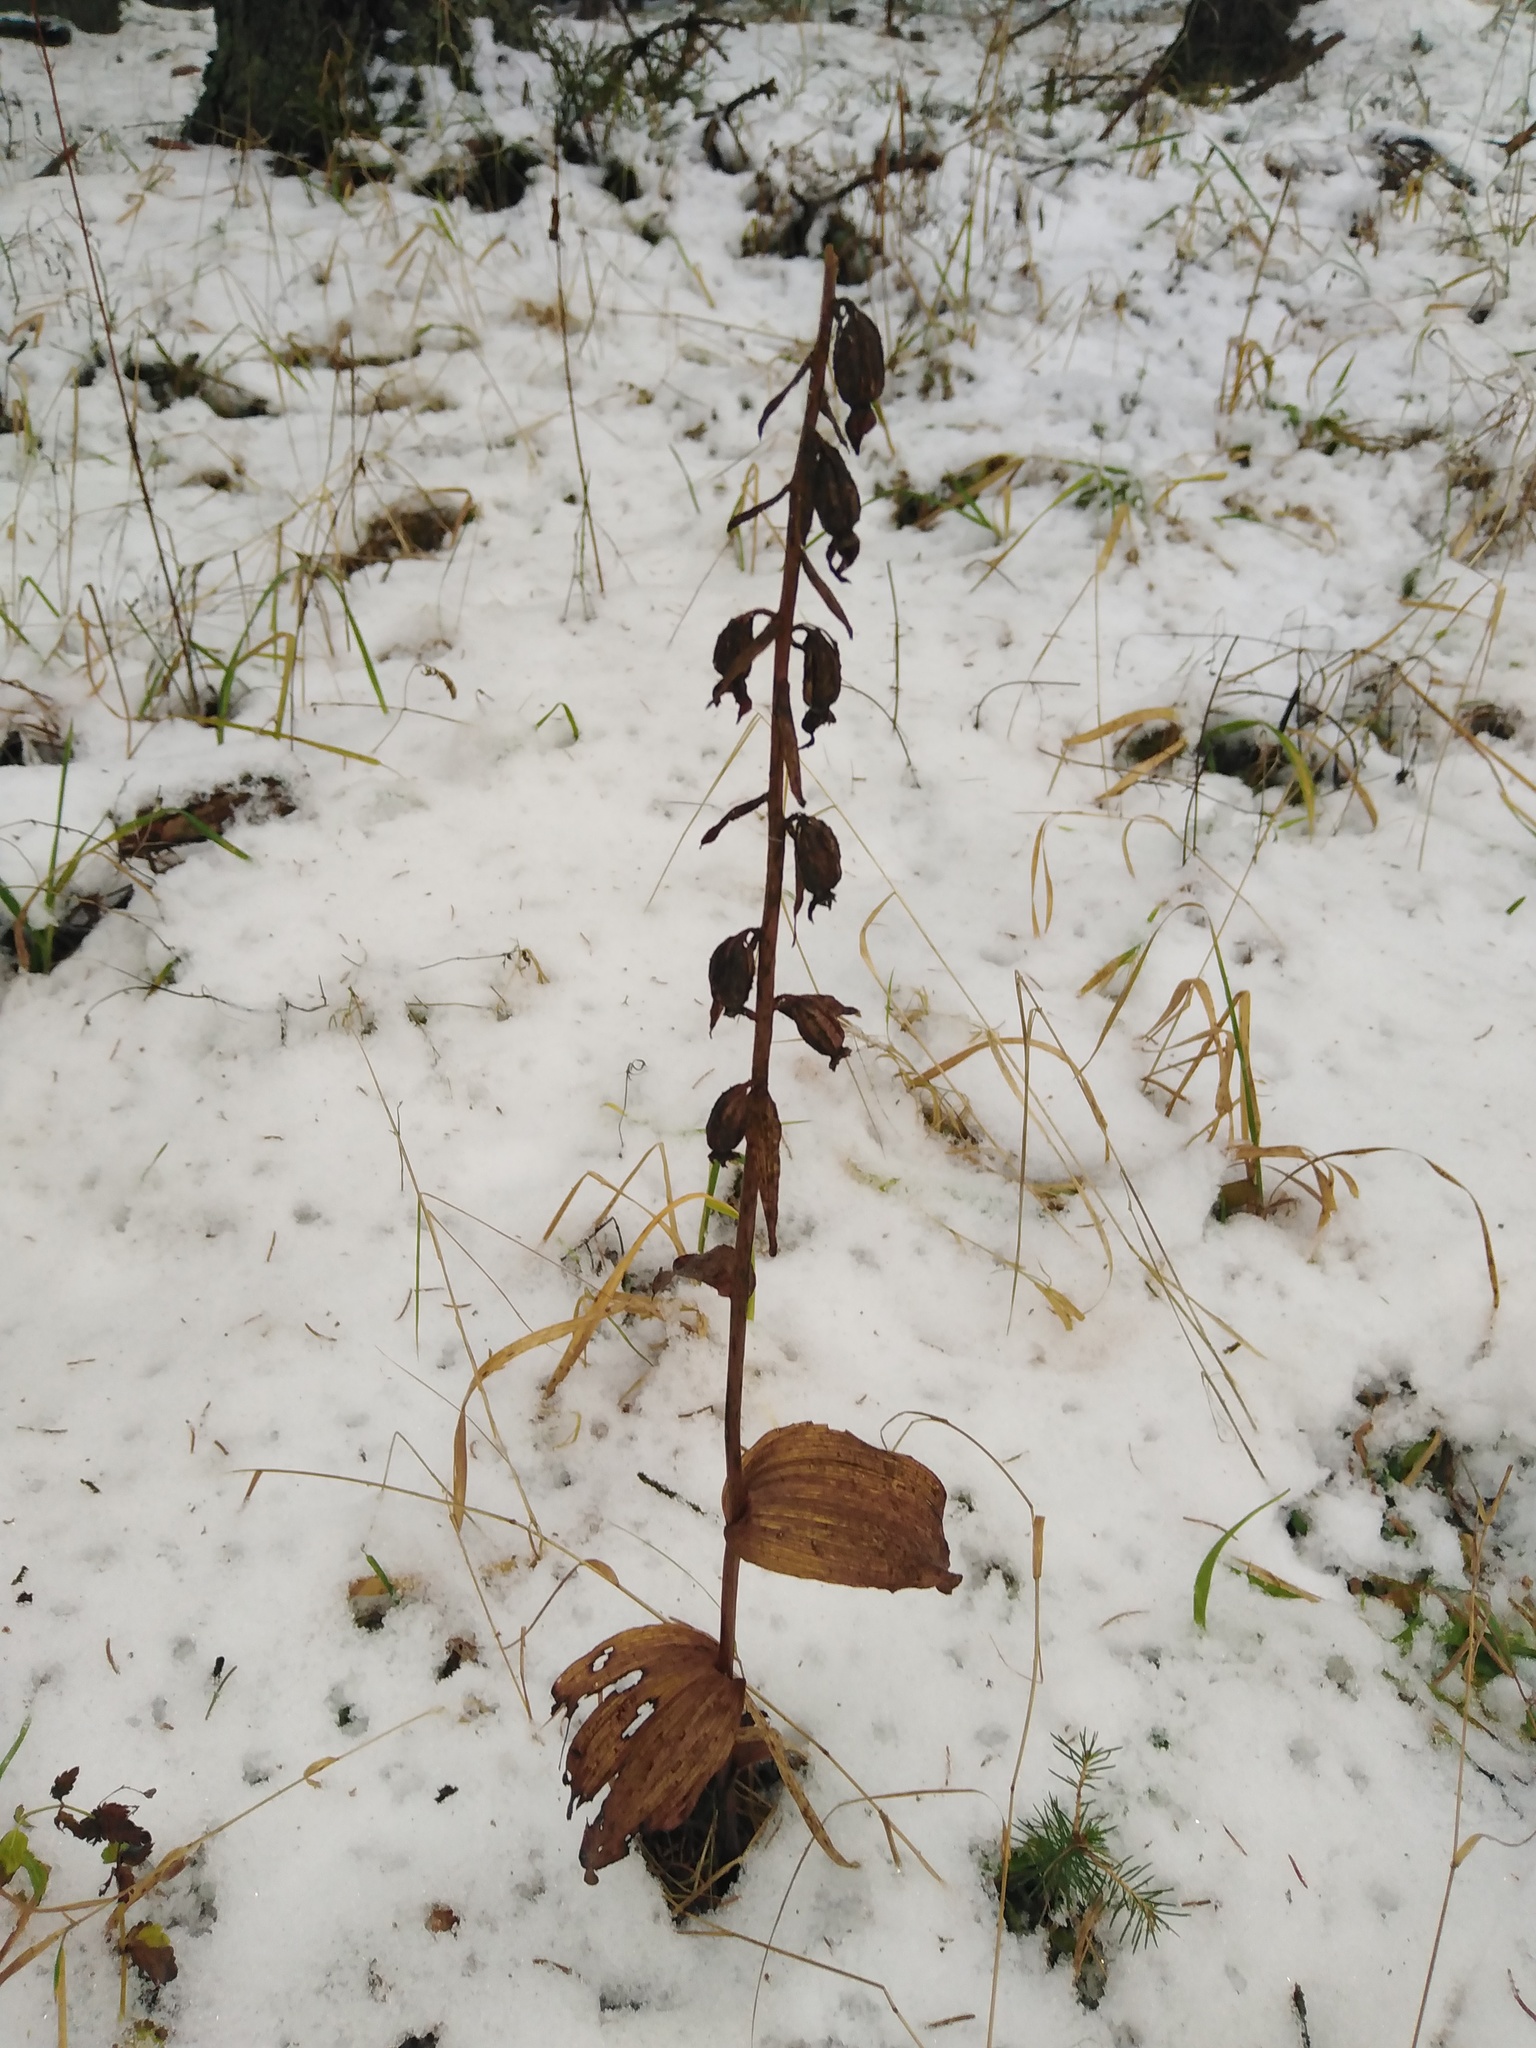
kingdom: Plantae
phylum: Tracheophyta
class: Liliopsida
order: Asparagales
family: Orchidaceae
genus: Epipactis
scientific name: Epipactis helleborine
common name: Broad-leaved helleborine
